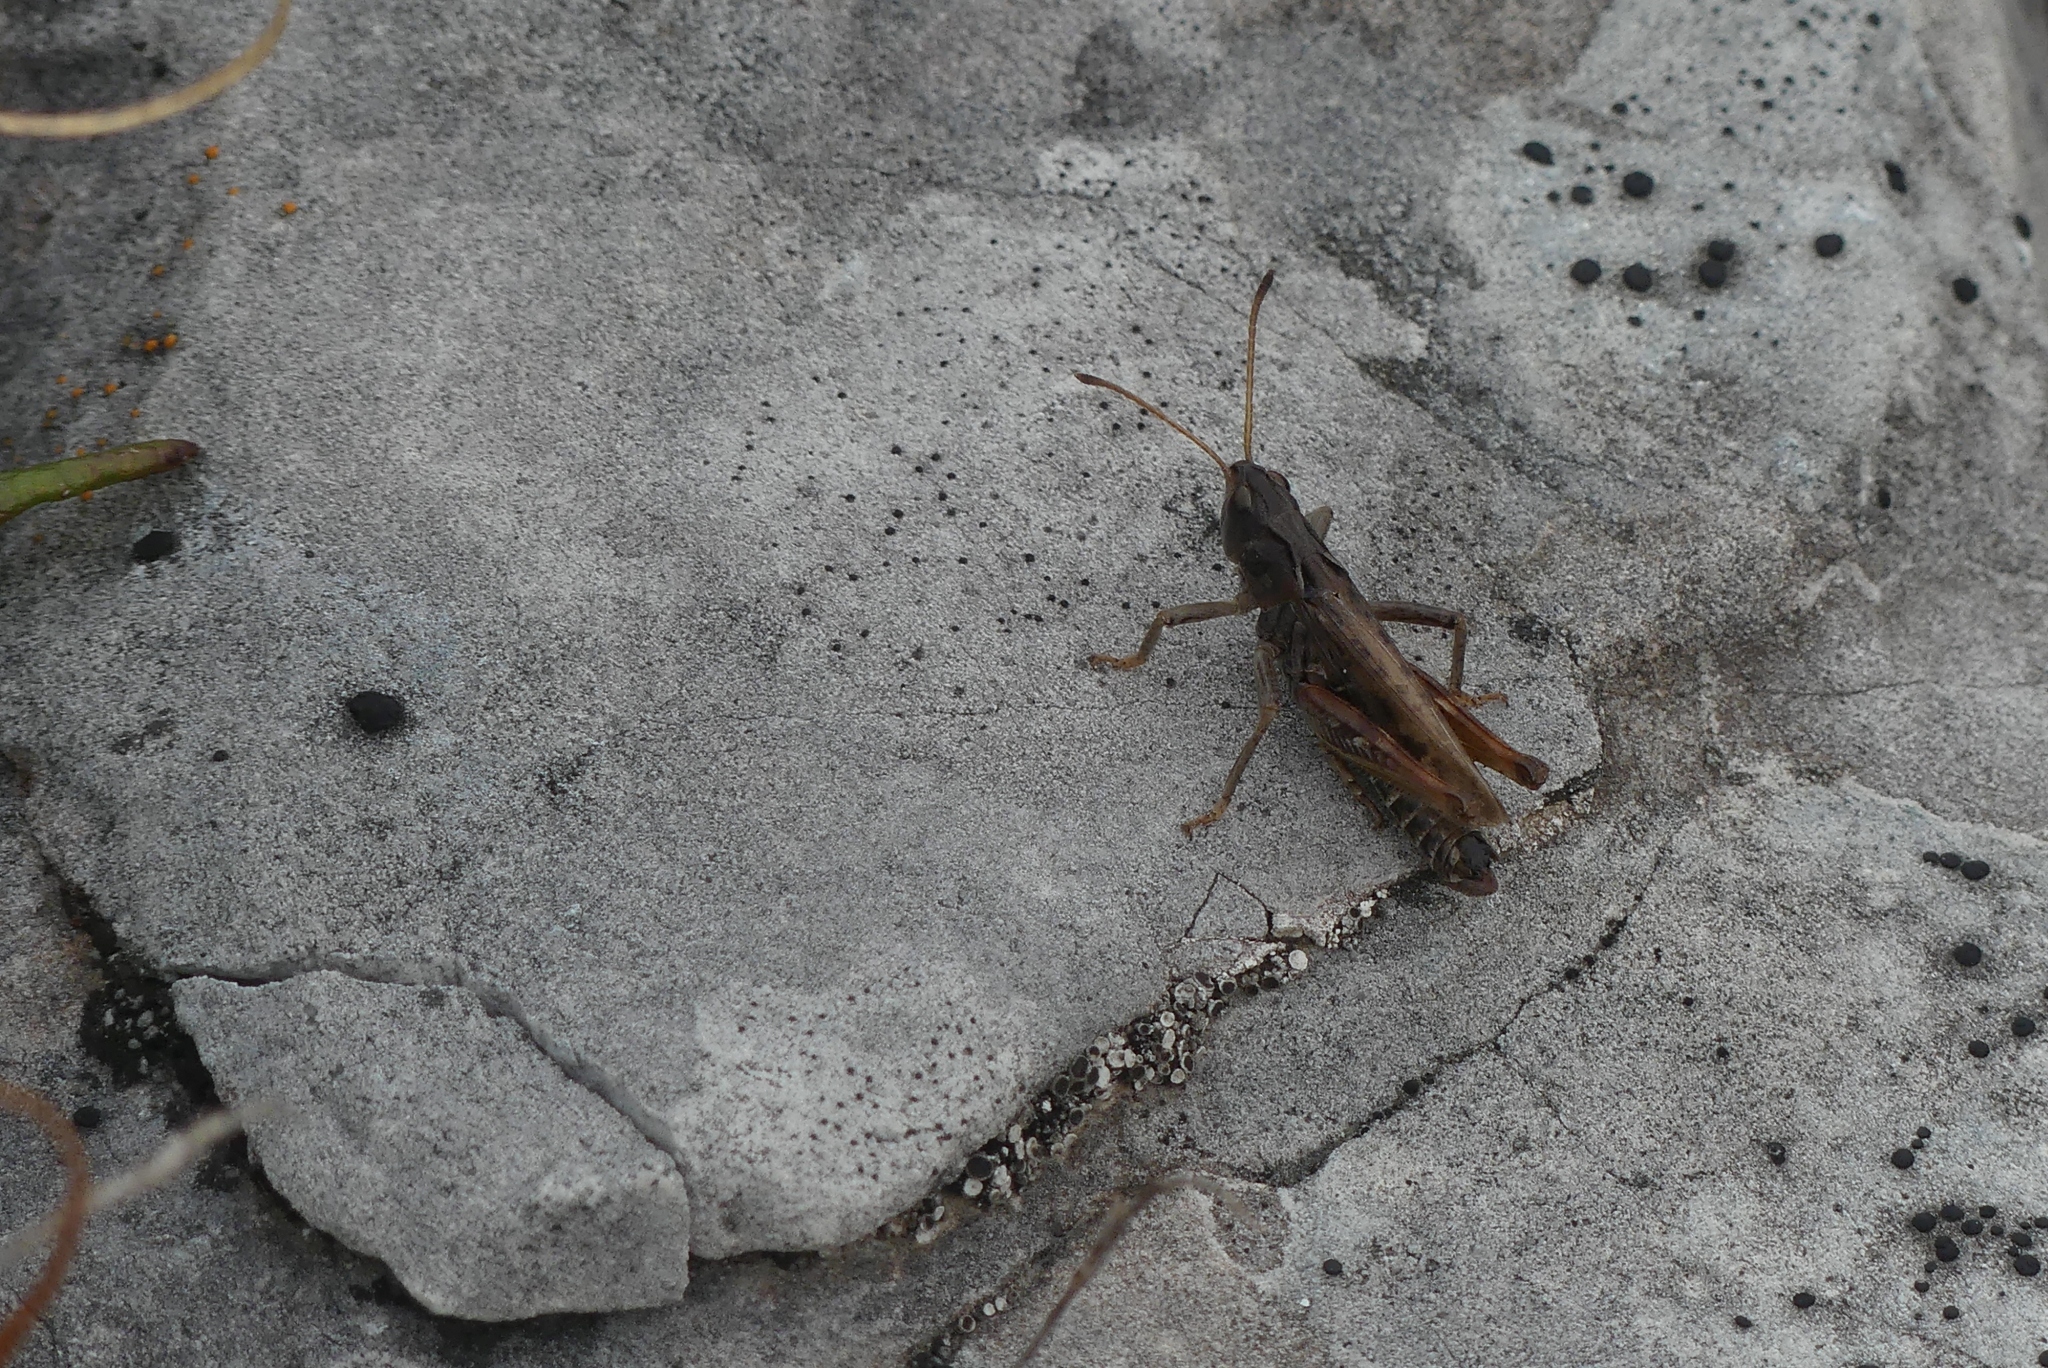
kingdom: Animalia
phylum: Arthropoda
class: Insecta
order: Orthoptera
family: Acrididae
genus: Aeropedellus
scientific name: Aeropedellus clavatus
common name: Clubhorned grasshopper
